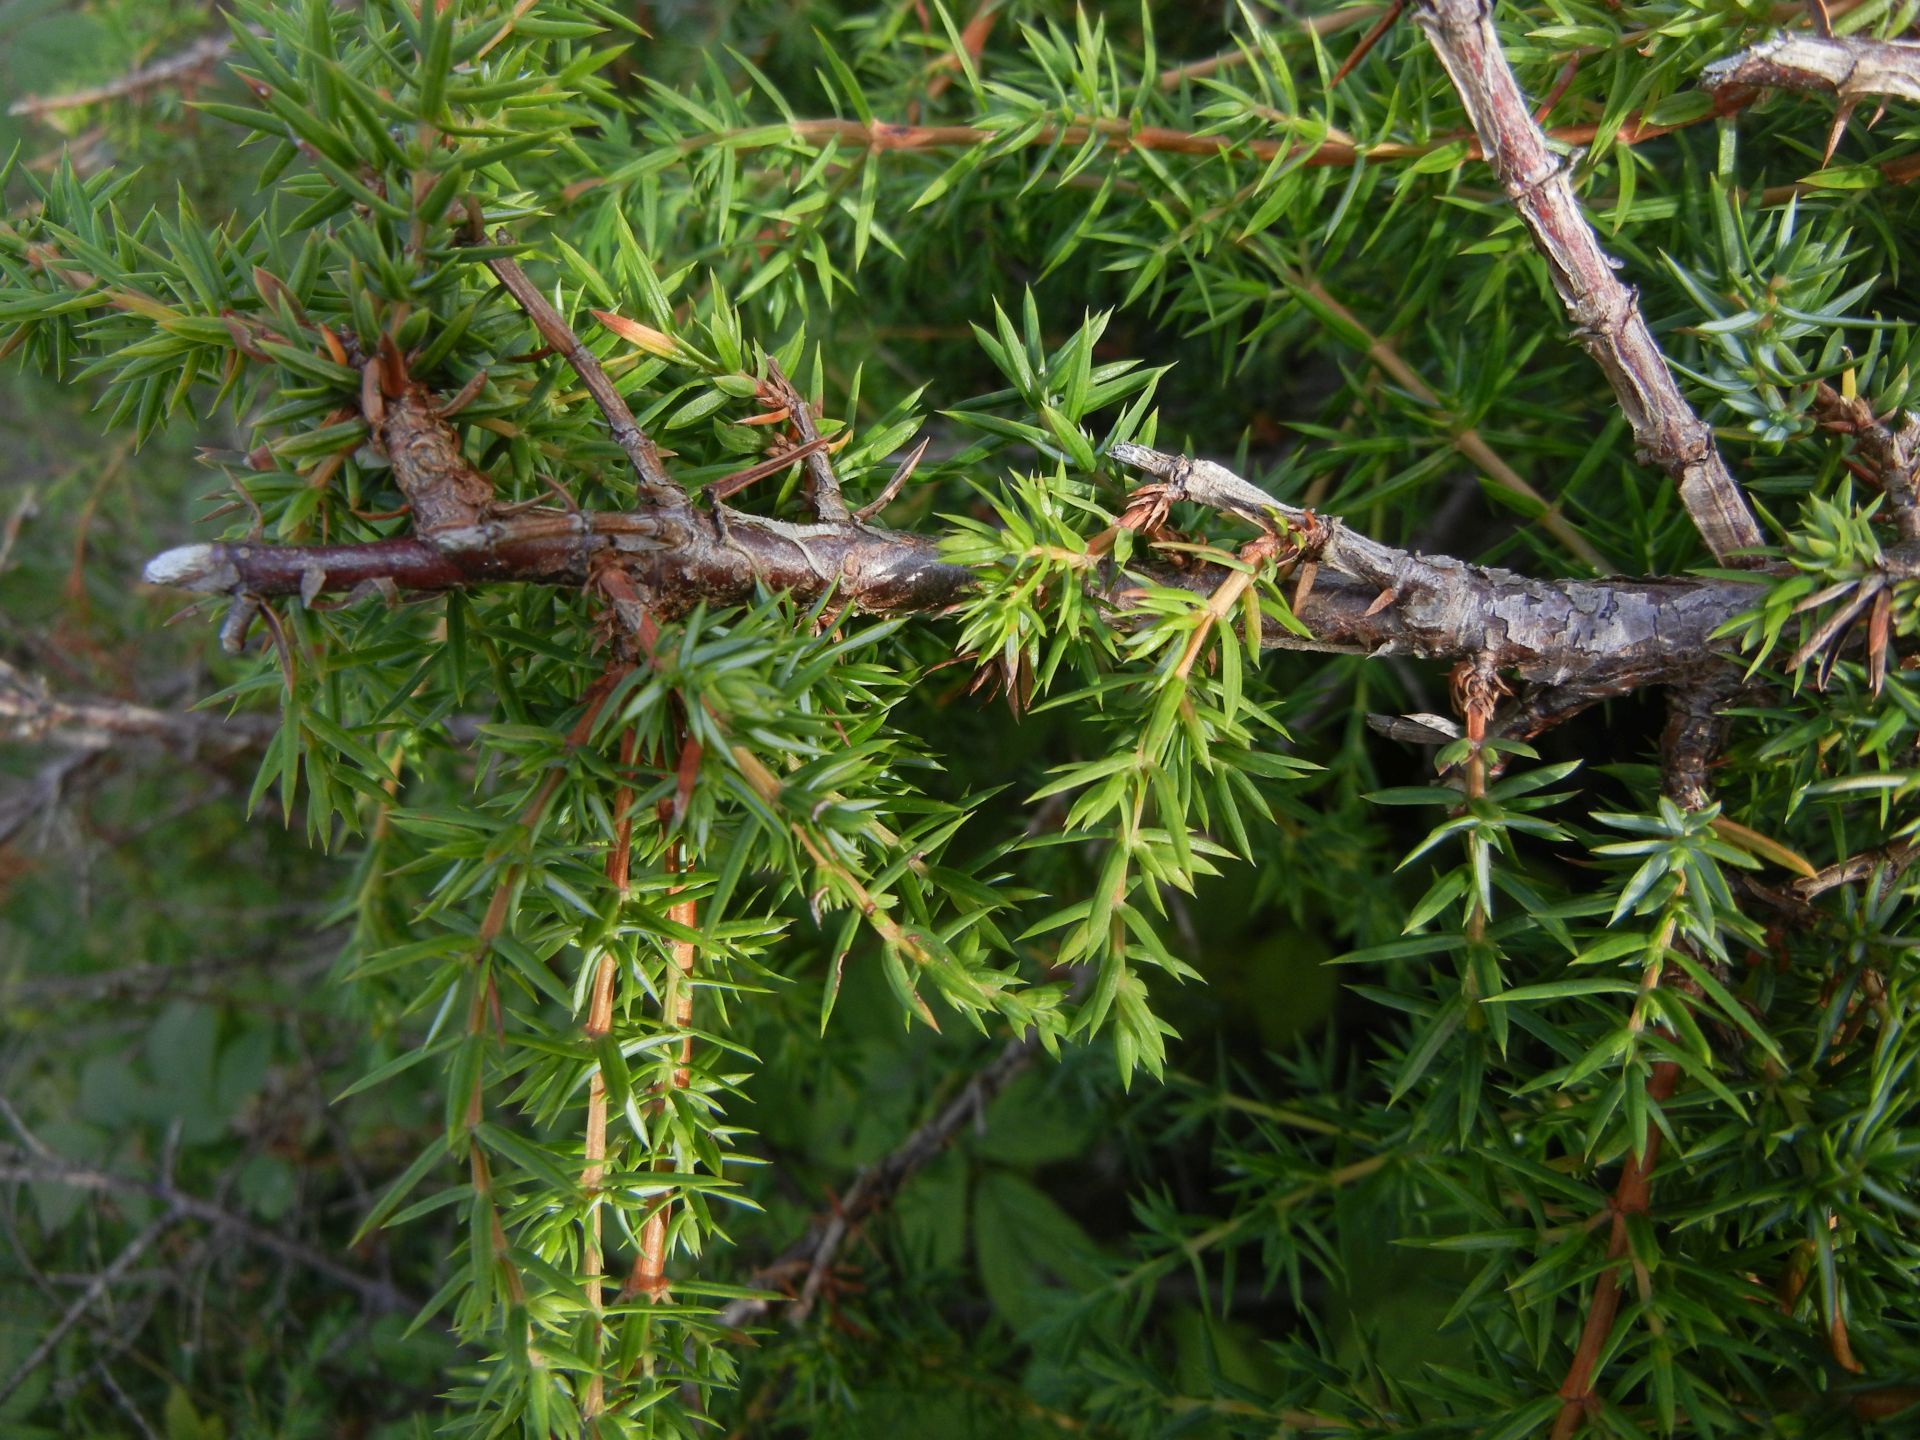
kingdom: Plantae
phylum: Tracheophyta
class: Pinopsida
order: Pinales
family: Cupressaceae
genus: Juniperus
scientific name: Juniperus communis
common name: Common juniper
